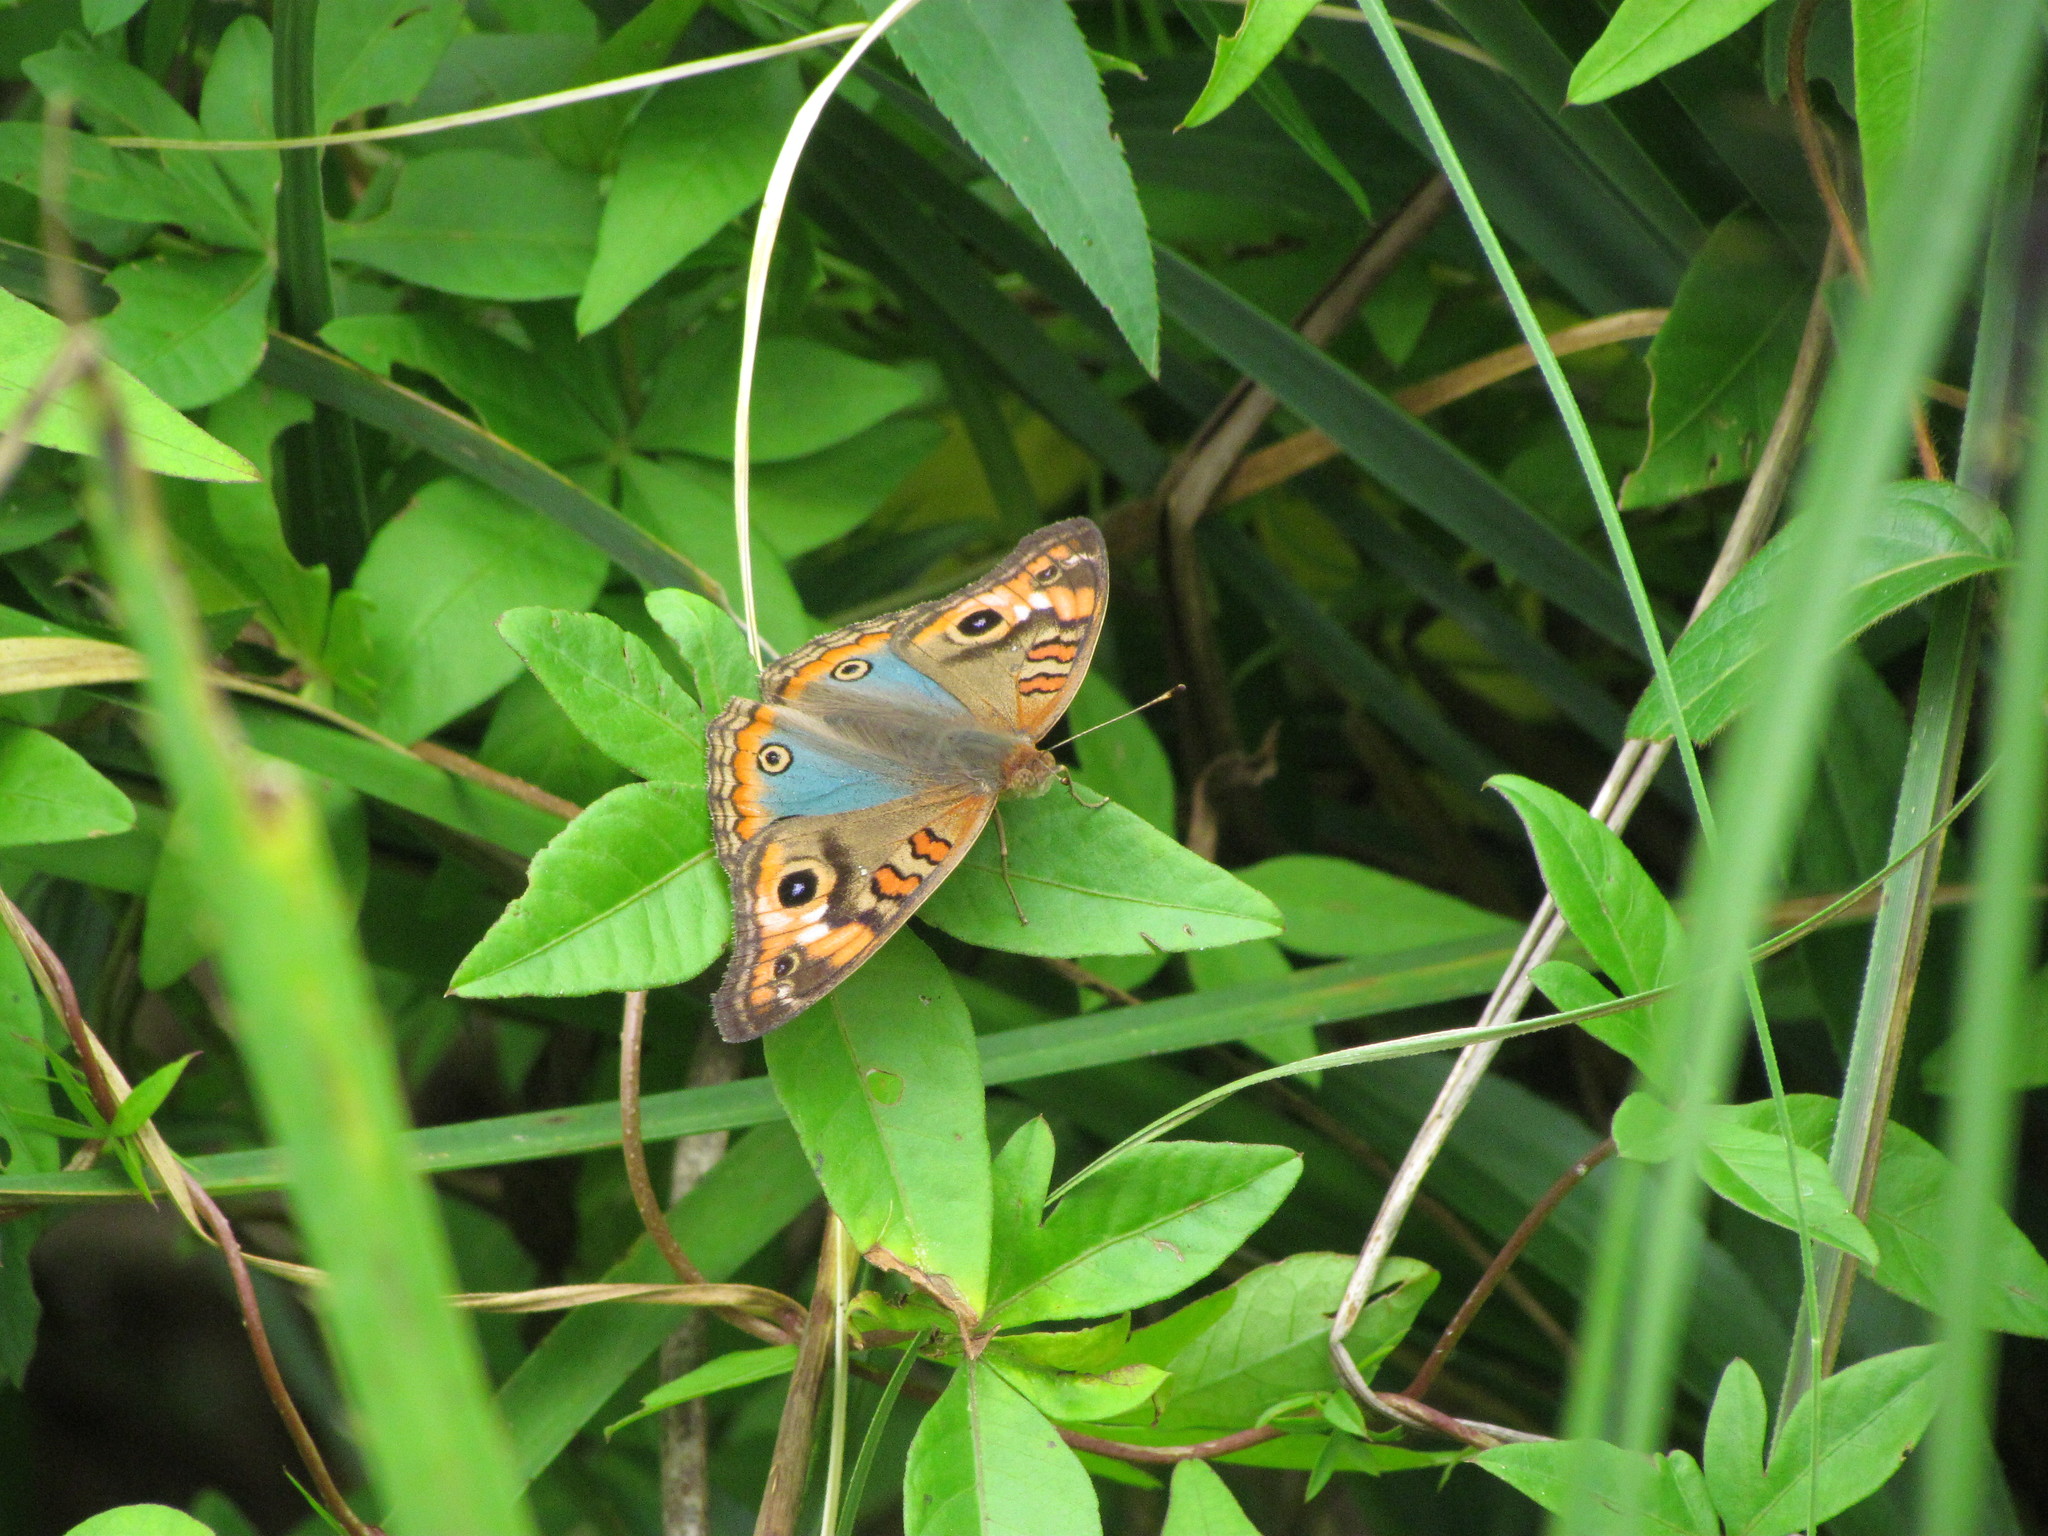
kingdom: Animalia
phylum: Arthropoda
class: Insecta
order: Lepidoptera
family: Nymphalidae
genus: Junonia
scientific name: Junonia lavinia
